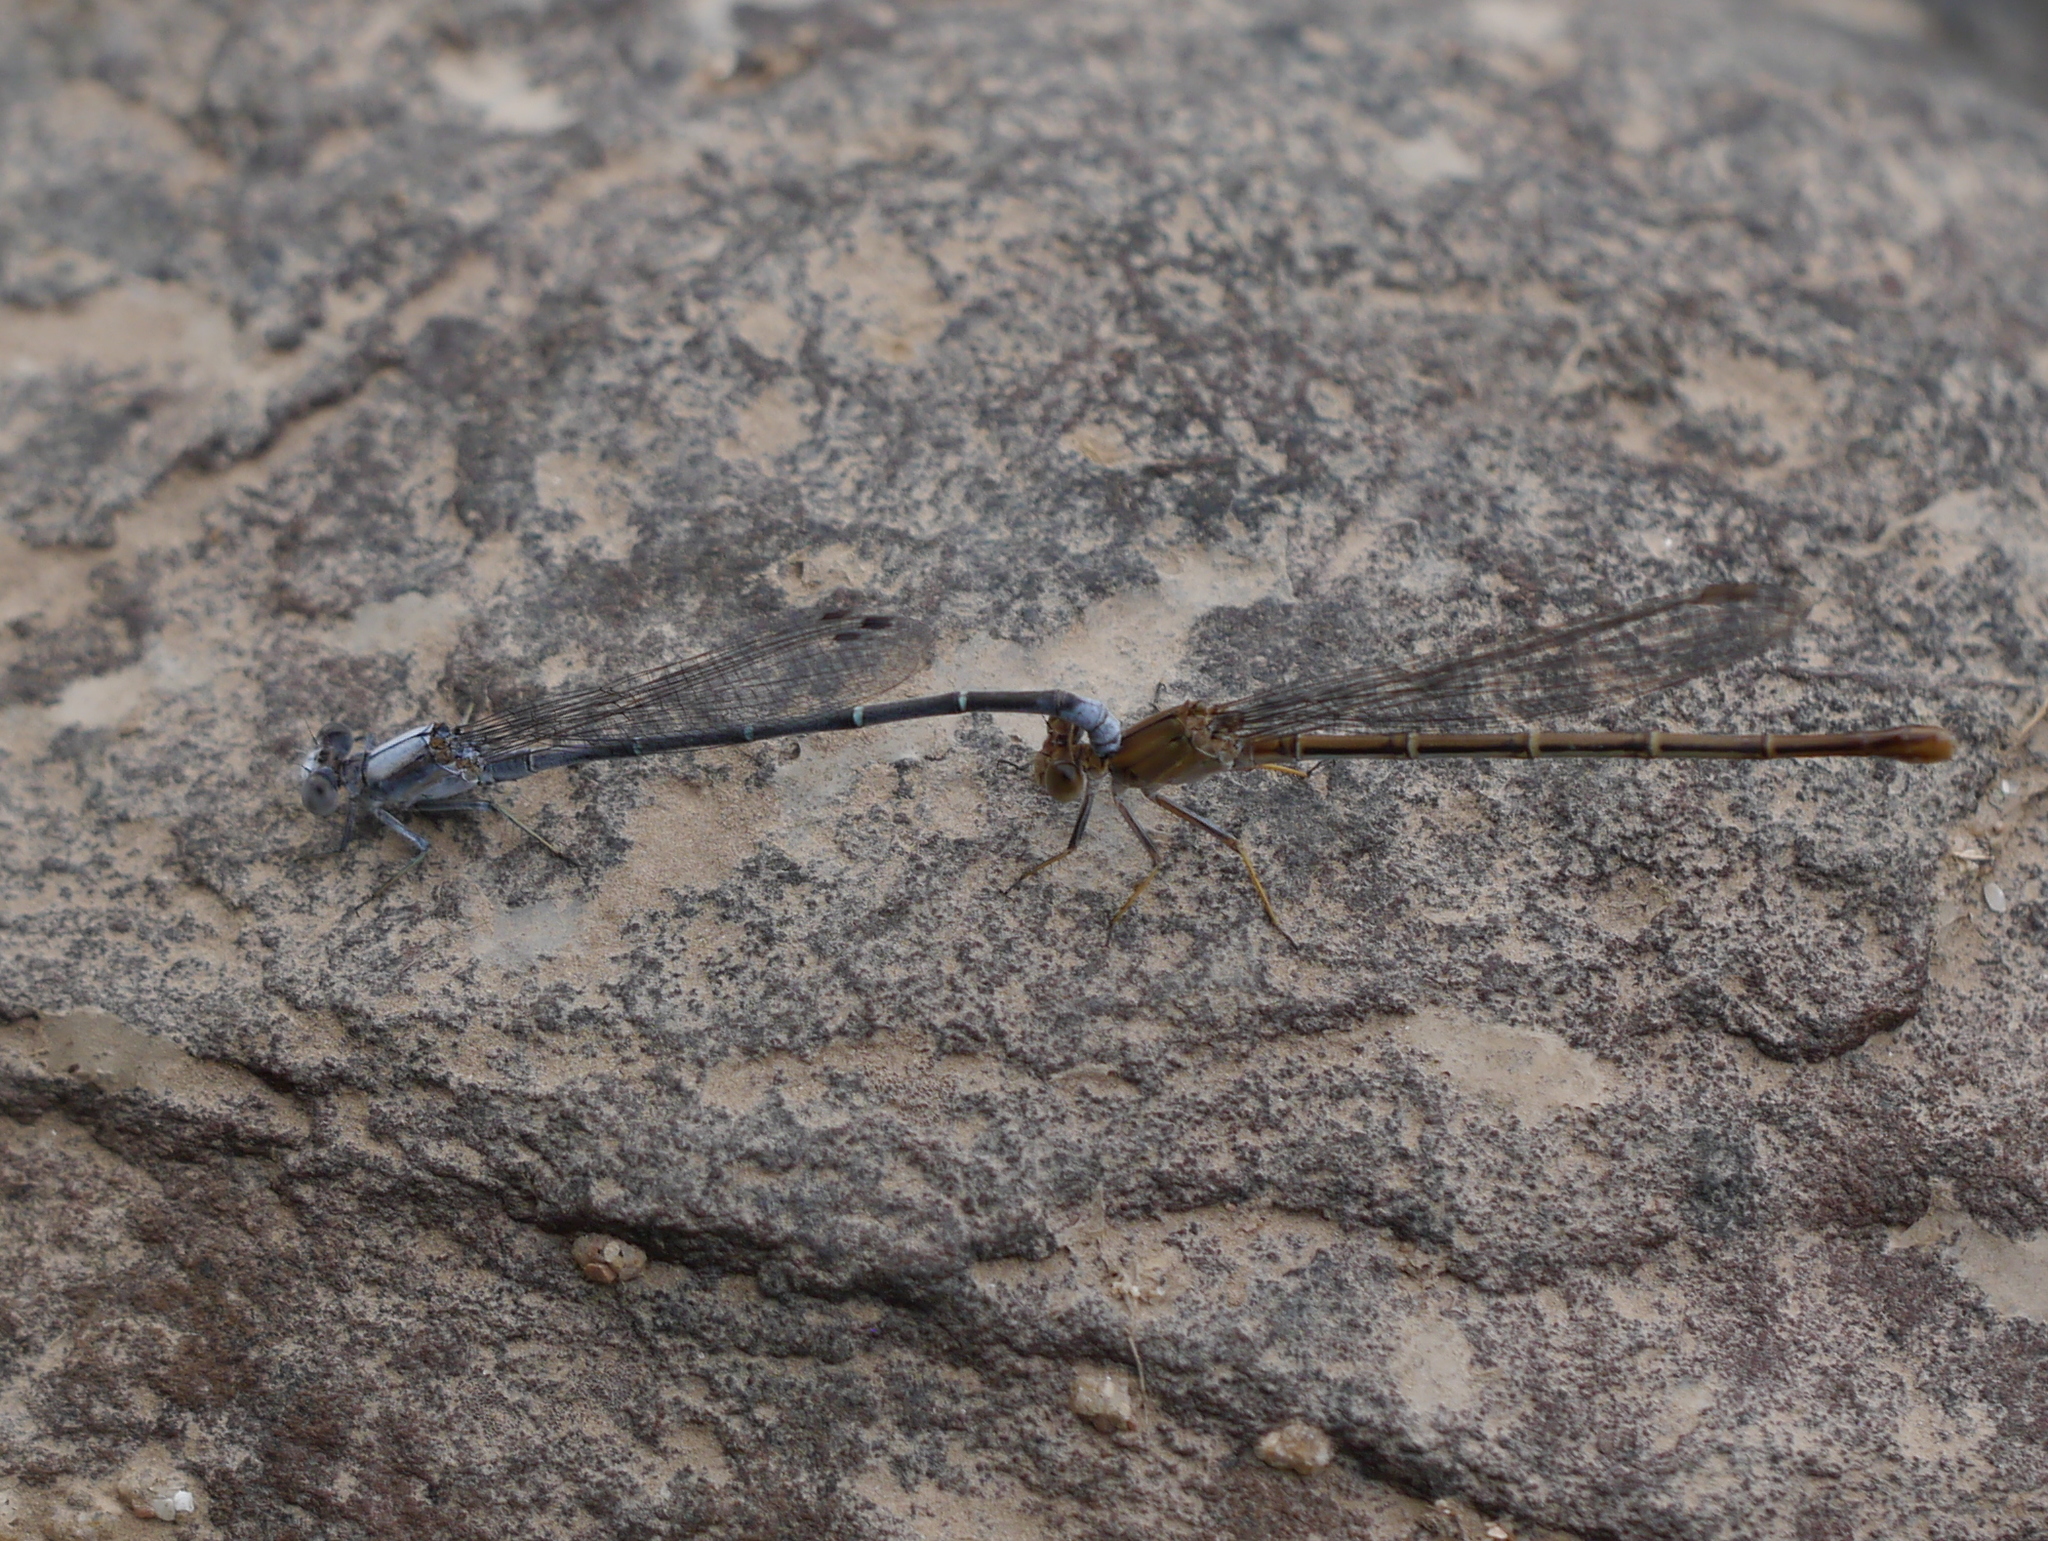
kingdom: Animalia
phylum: Arthropoda
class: Insecta
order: Odonata
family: Coenagrionidae
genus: Argia
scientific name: Argia moesta
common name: Powdered dancer
